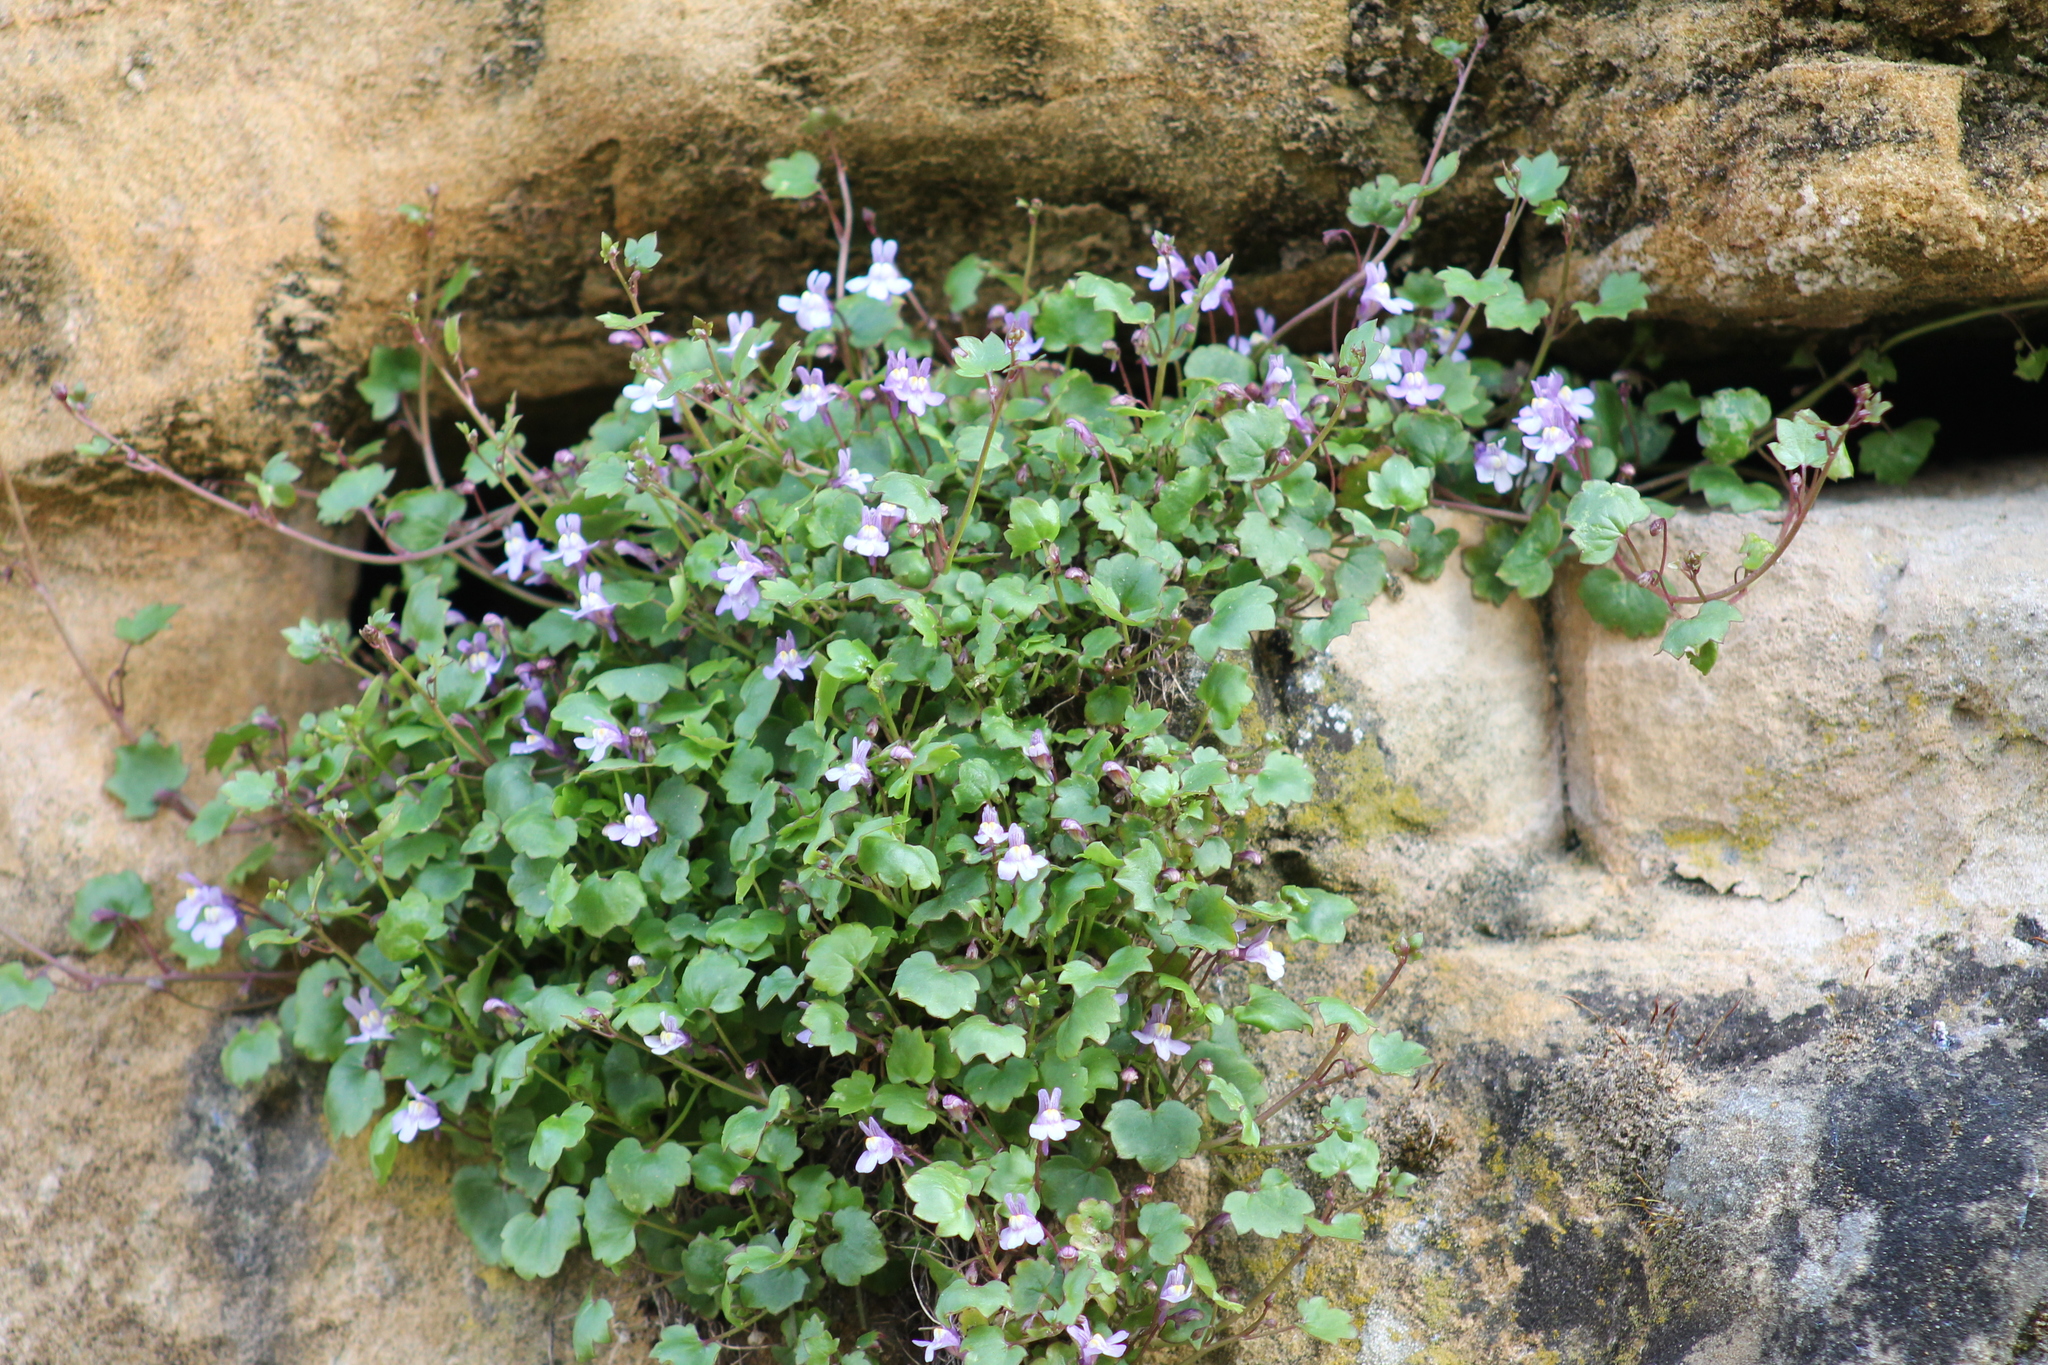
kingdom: Plantae
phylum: Tracheophyta
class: Magnoliopsida
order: Lamiales
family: Plantaginaceae
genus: Cymbalaria
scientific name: Cymbalaria muralis
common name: Ivy-leaved toadflax
